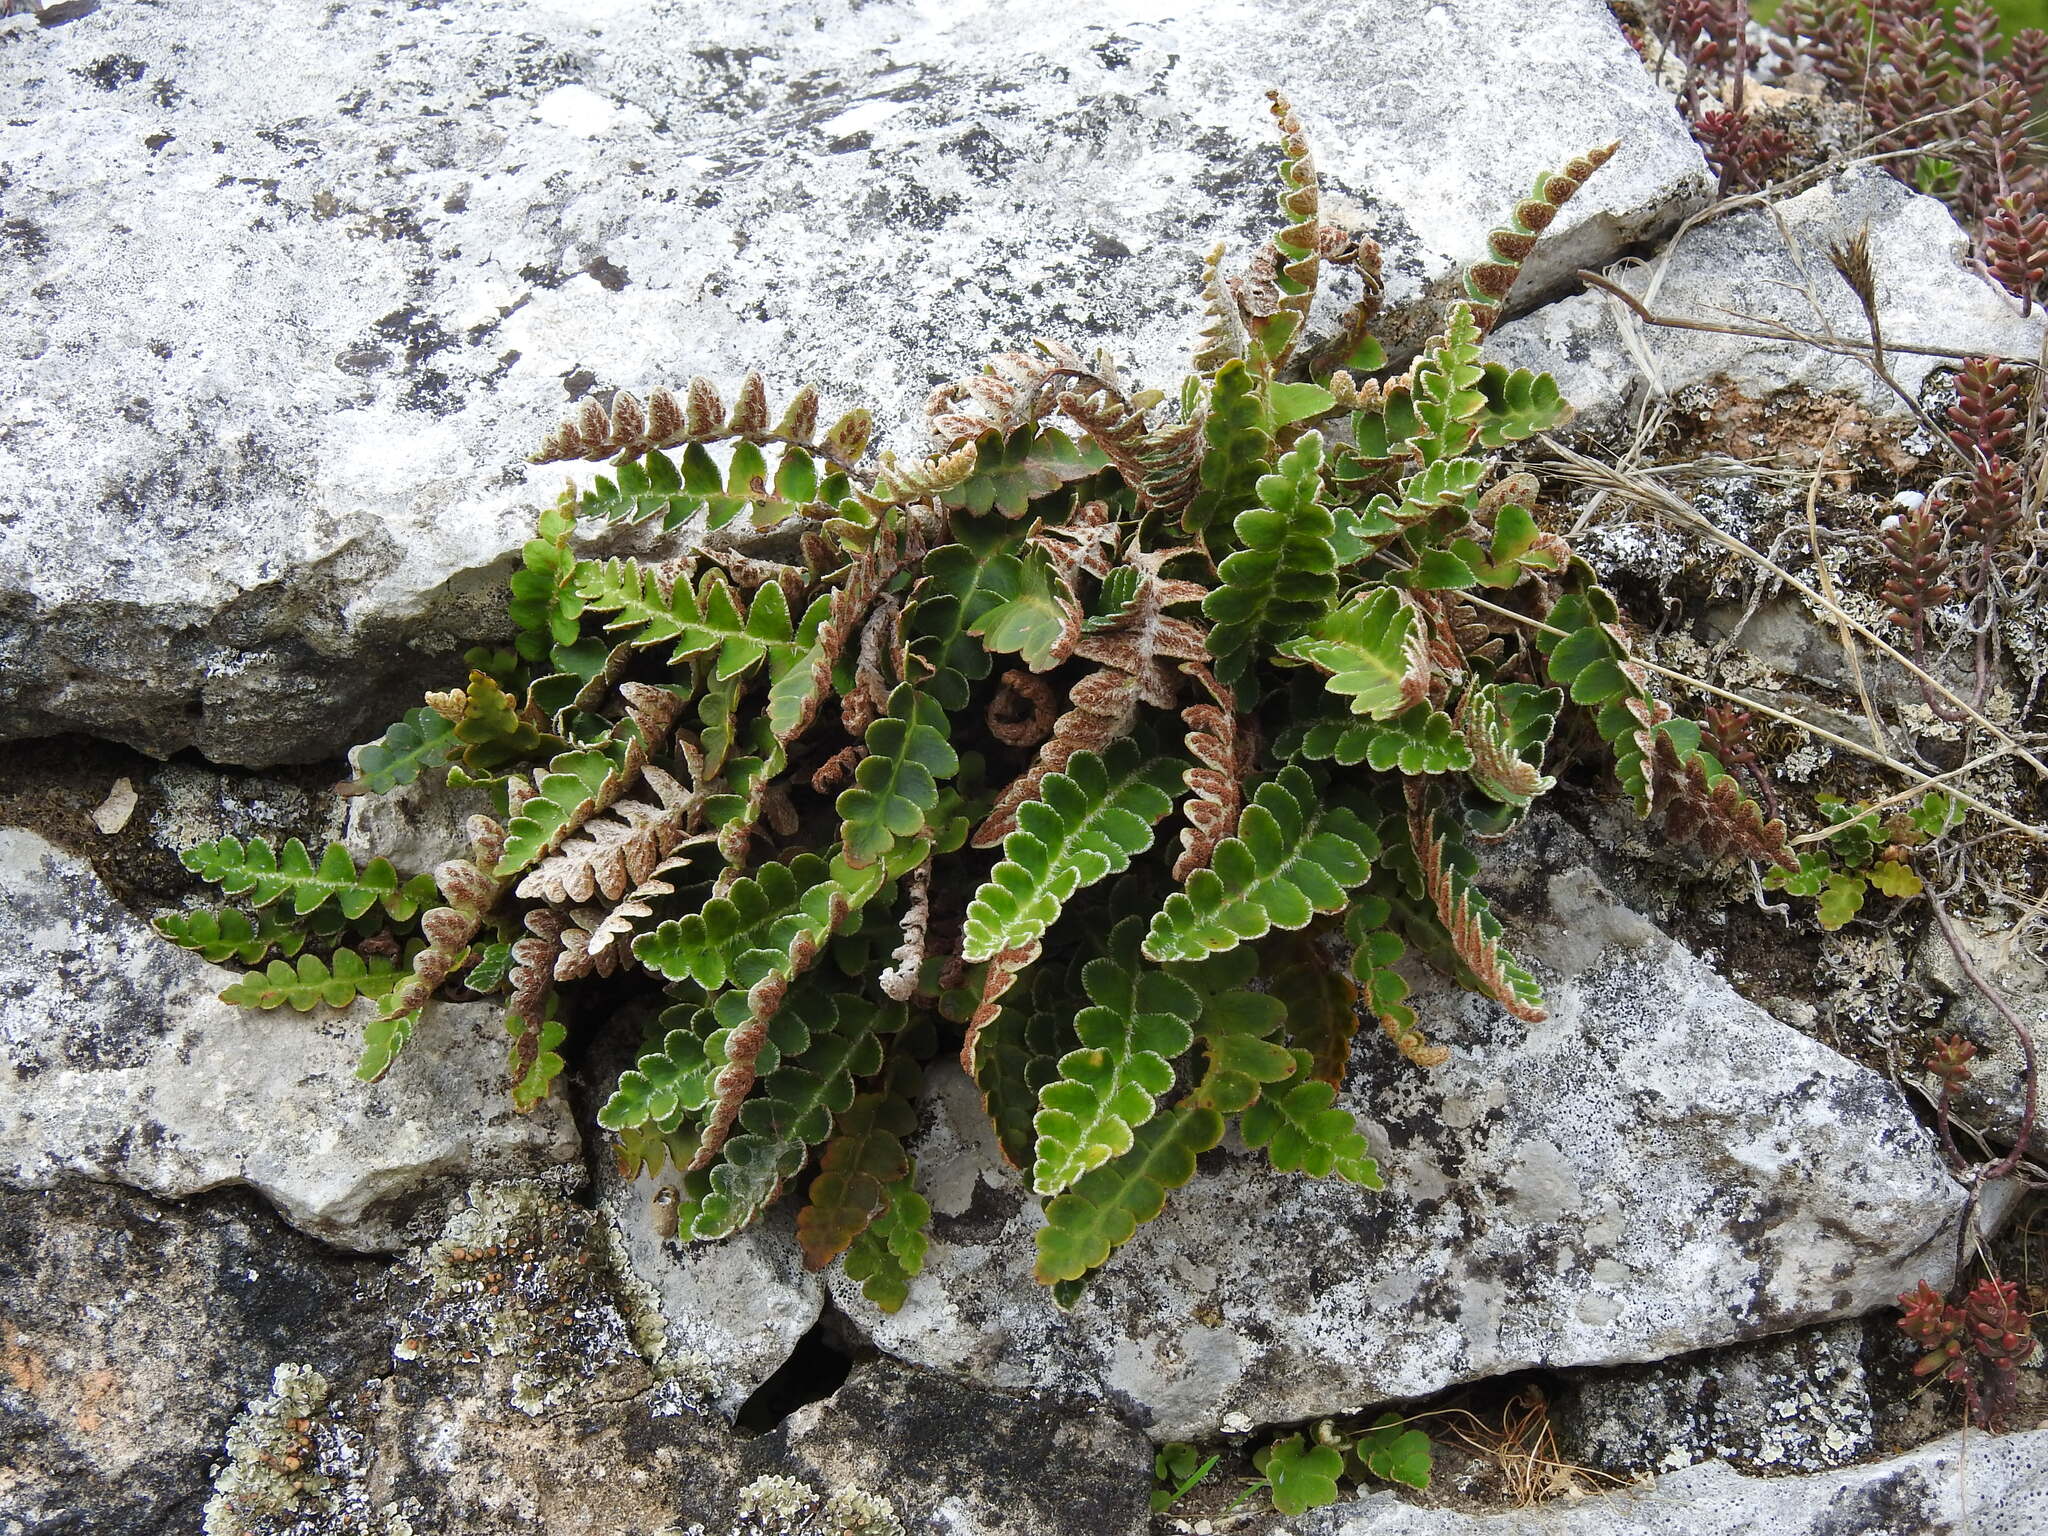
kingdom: Plantae
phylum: Tracheophyta
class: Polypodiopsida
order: Polypodiales
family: Aspleniaceae
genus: Asplenium
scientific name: Asplenium ceterach
